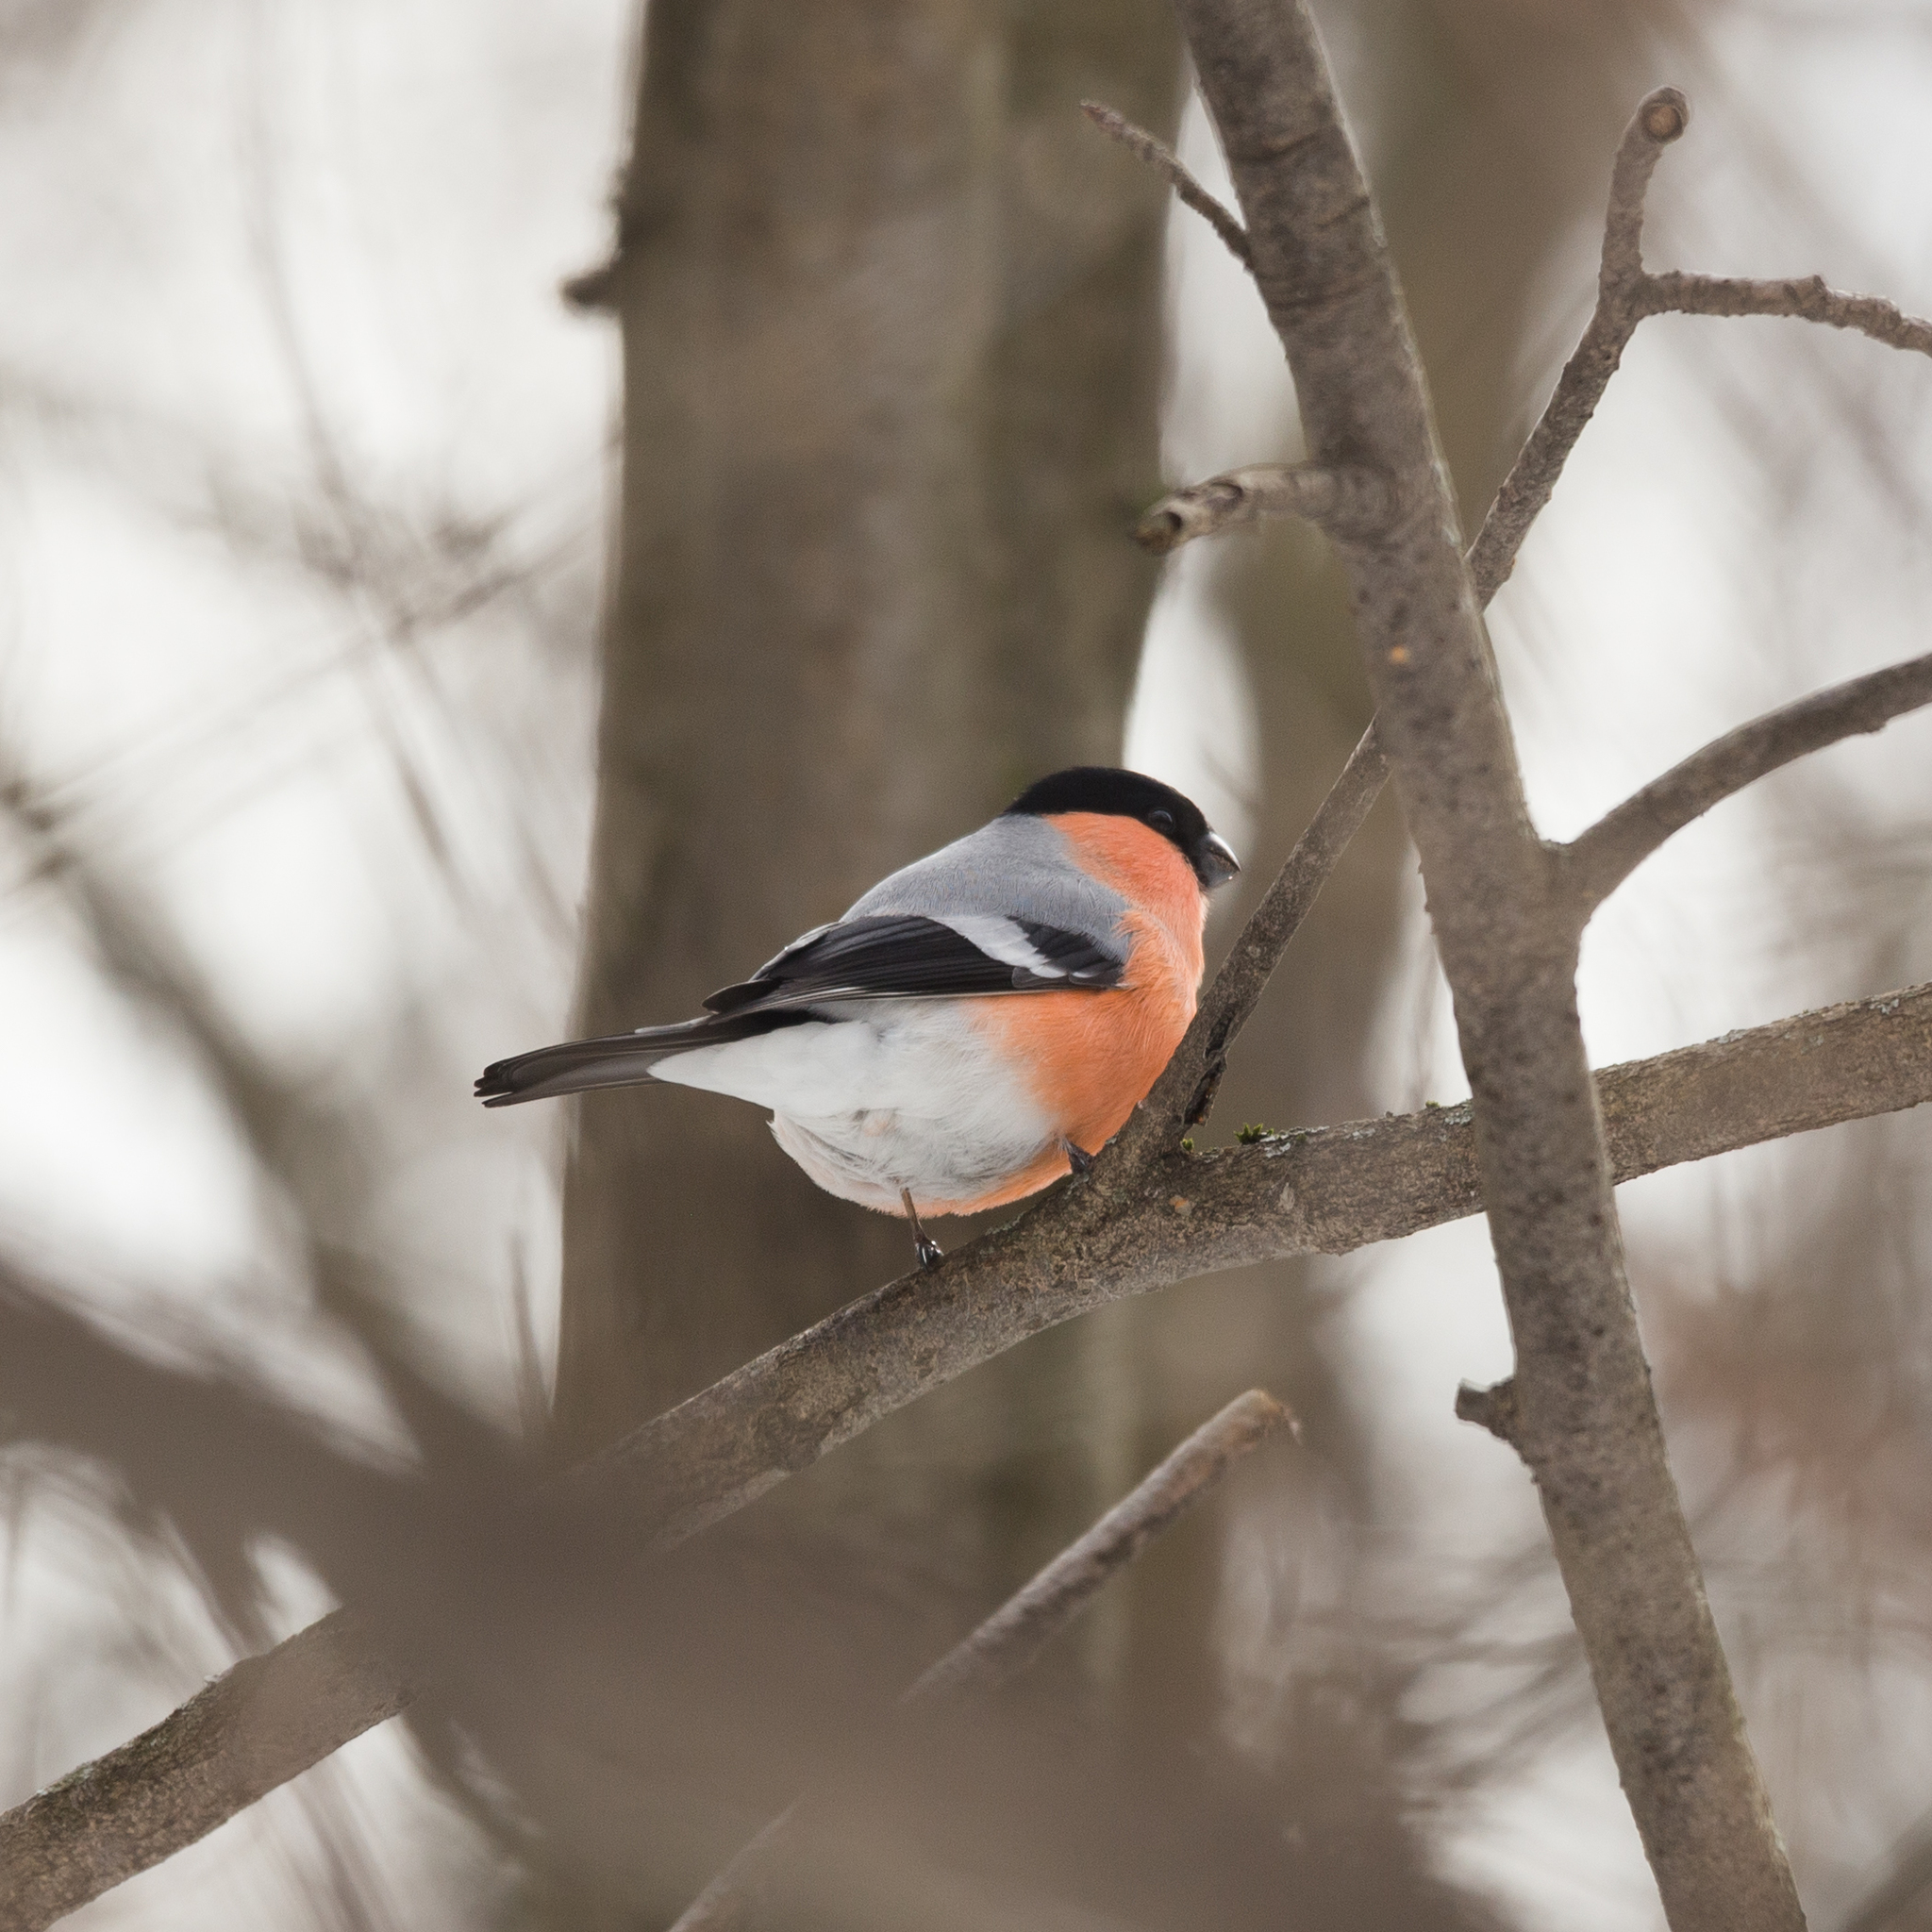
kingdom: Animalia
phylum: Chordata
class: Aves
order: Passeriformes
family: Fringillidae
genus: Pyrrhula
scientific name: Pyrrhula pyrrhula
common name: Eurasian bullfinch
